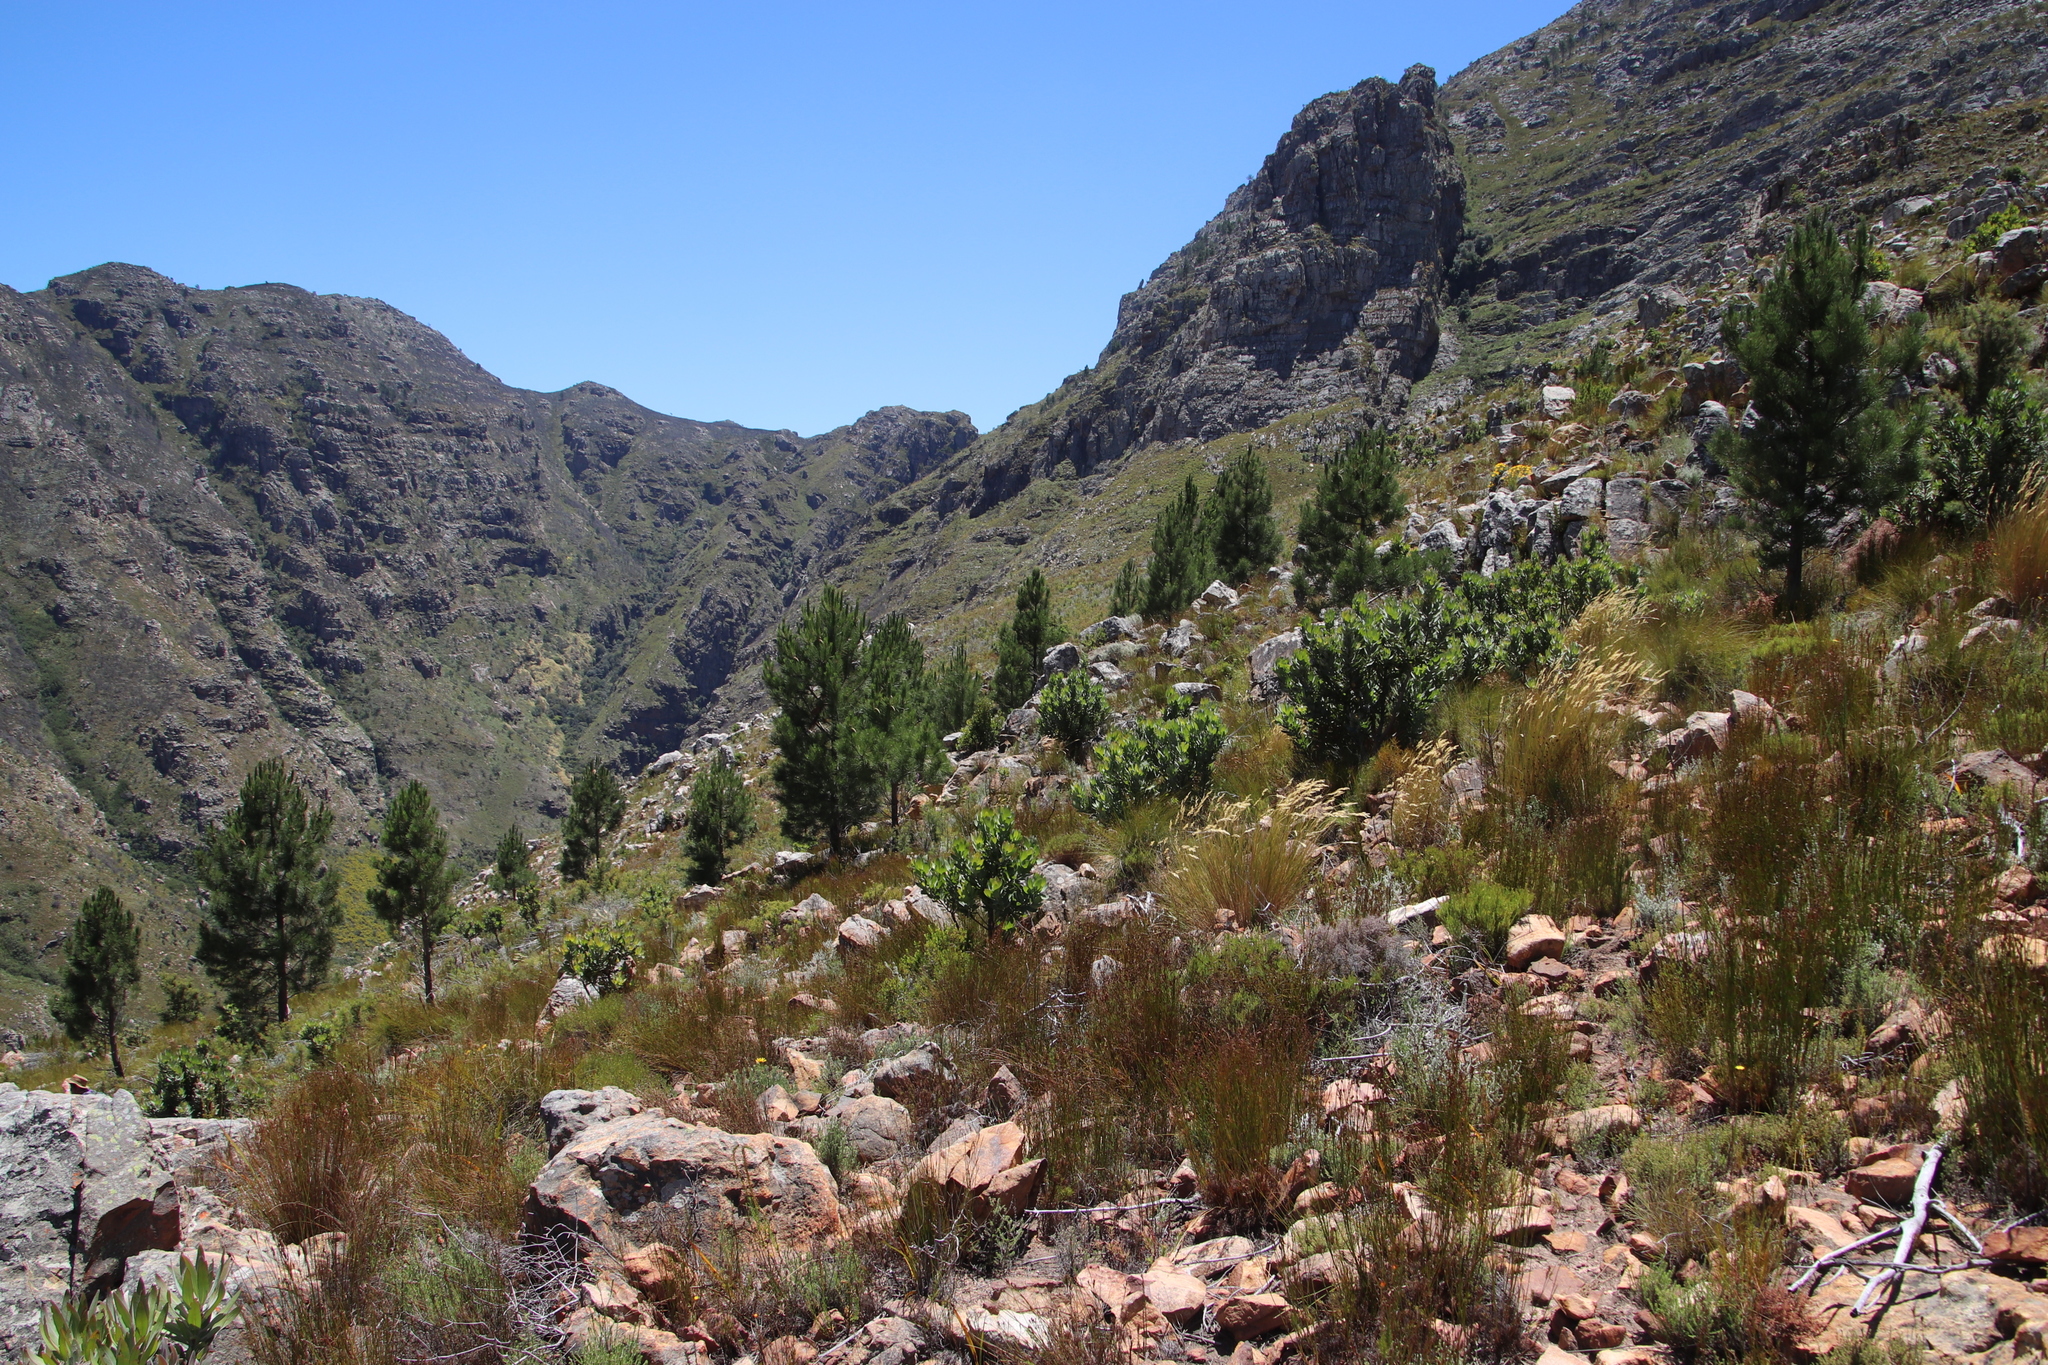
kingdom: Plantae
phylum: Tracheophyta
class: Pinopsida
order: Pinales
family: Pinaceae
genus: Pinus
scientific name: Pinus pinaster
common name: Maritime pine
